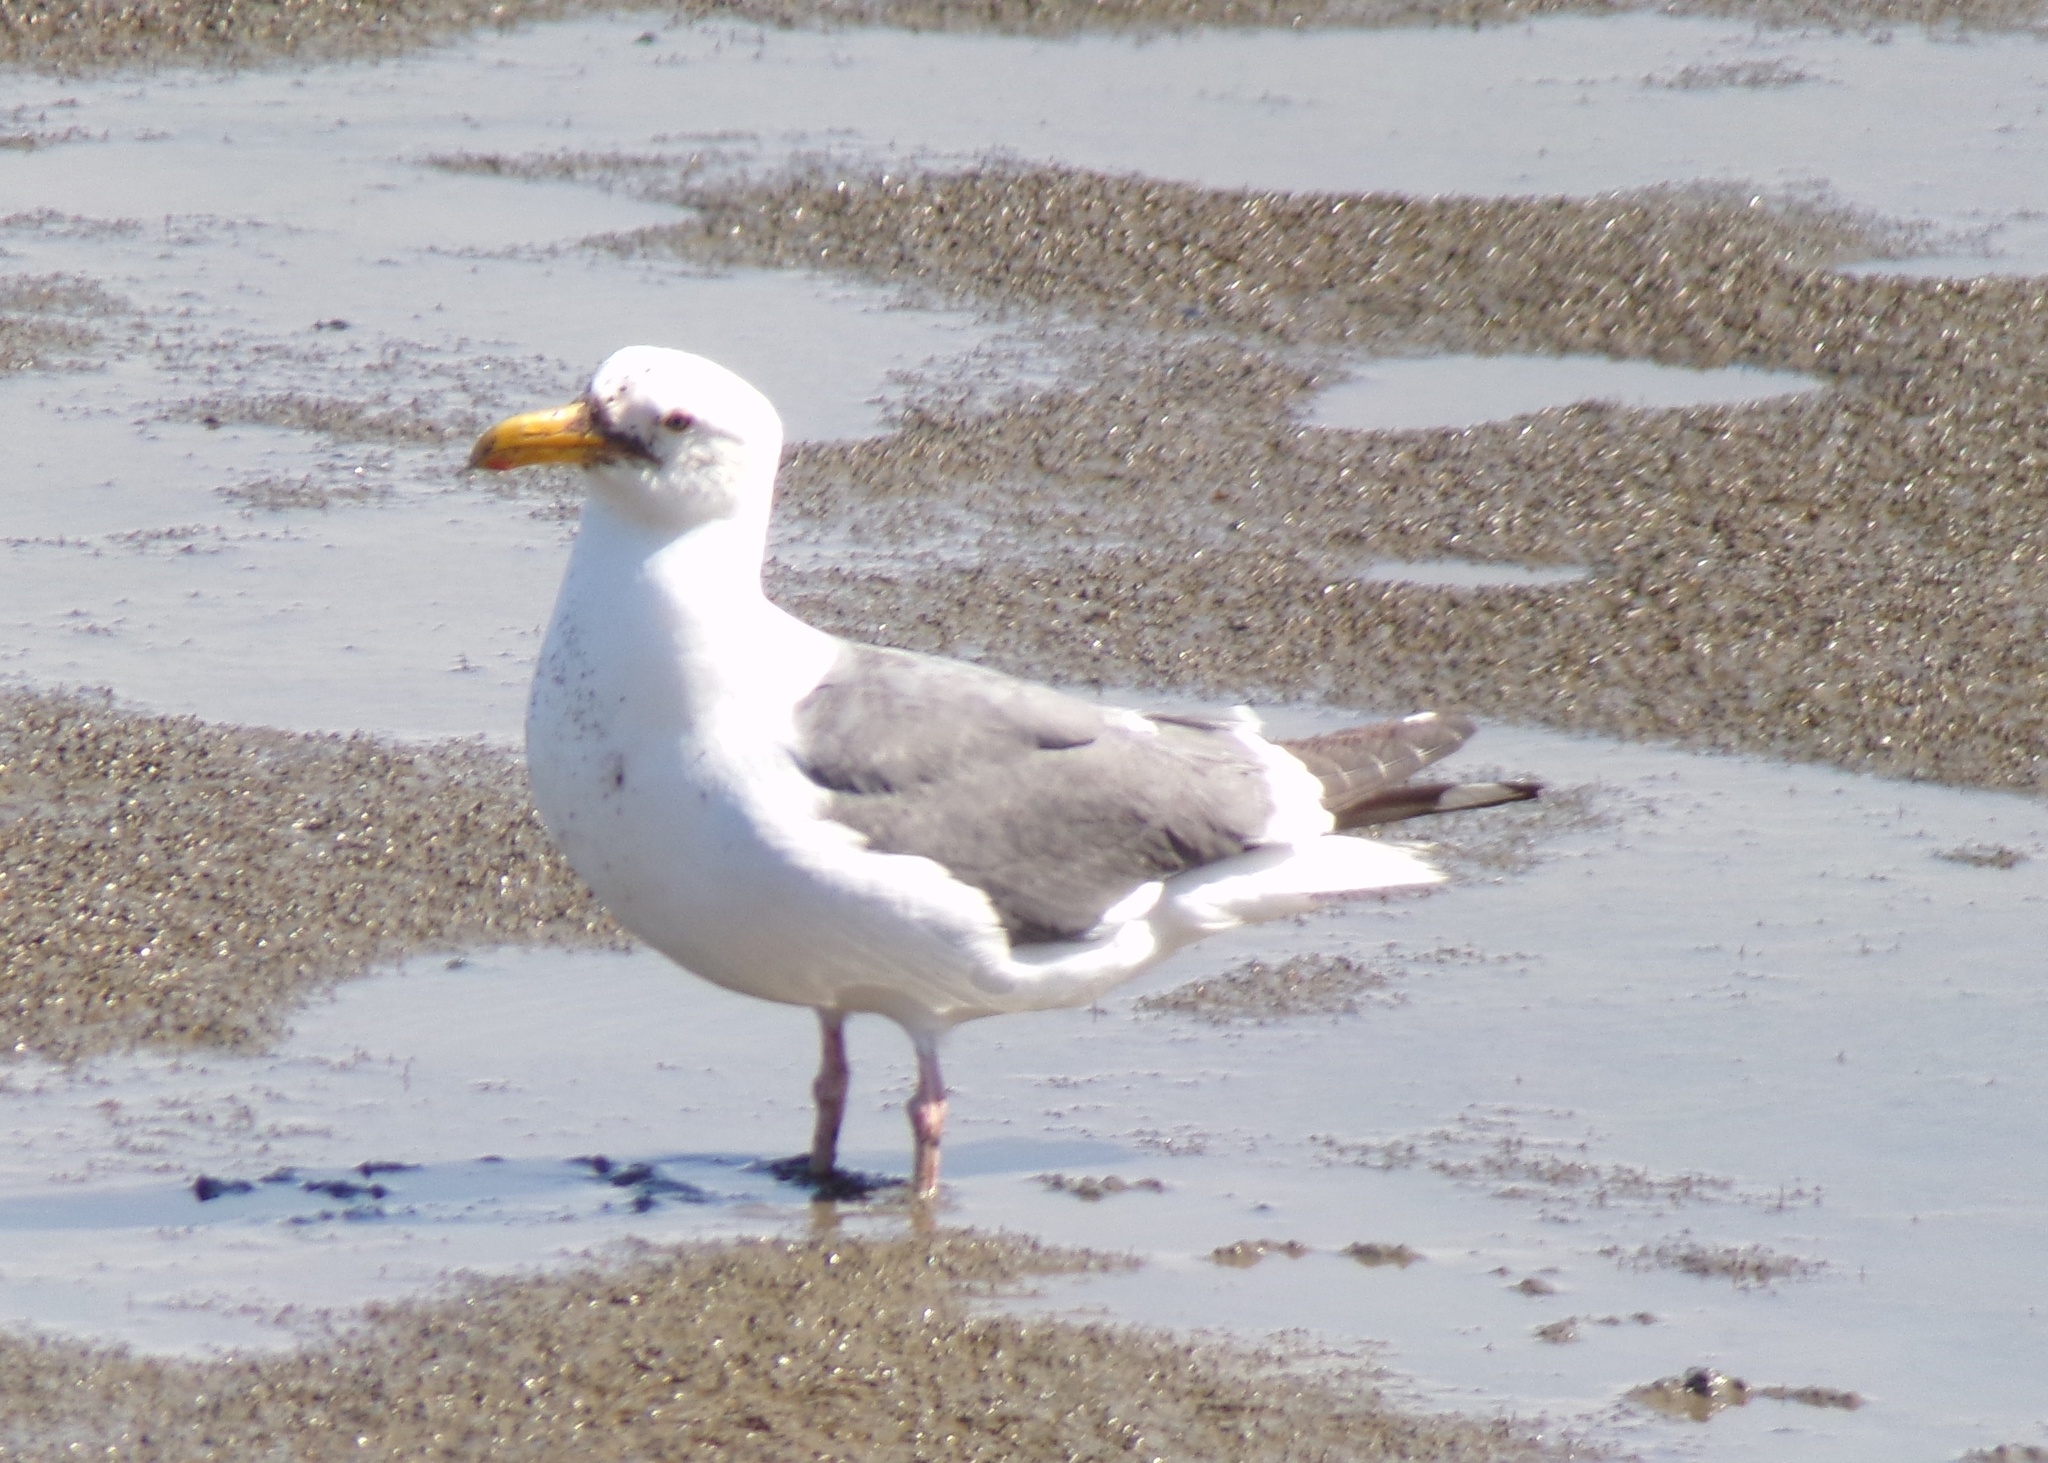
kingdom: Animalia
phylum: Chordata
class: Aves
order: Charadriiformes
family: Laridae
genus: Larus
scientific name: Larus occidentalis
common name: Western gull
